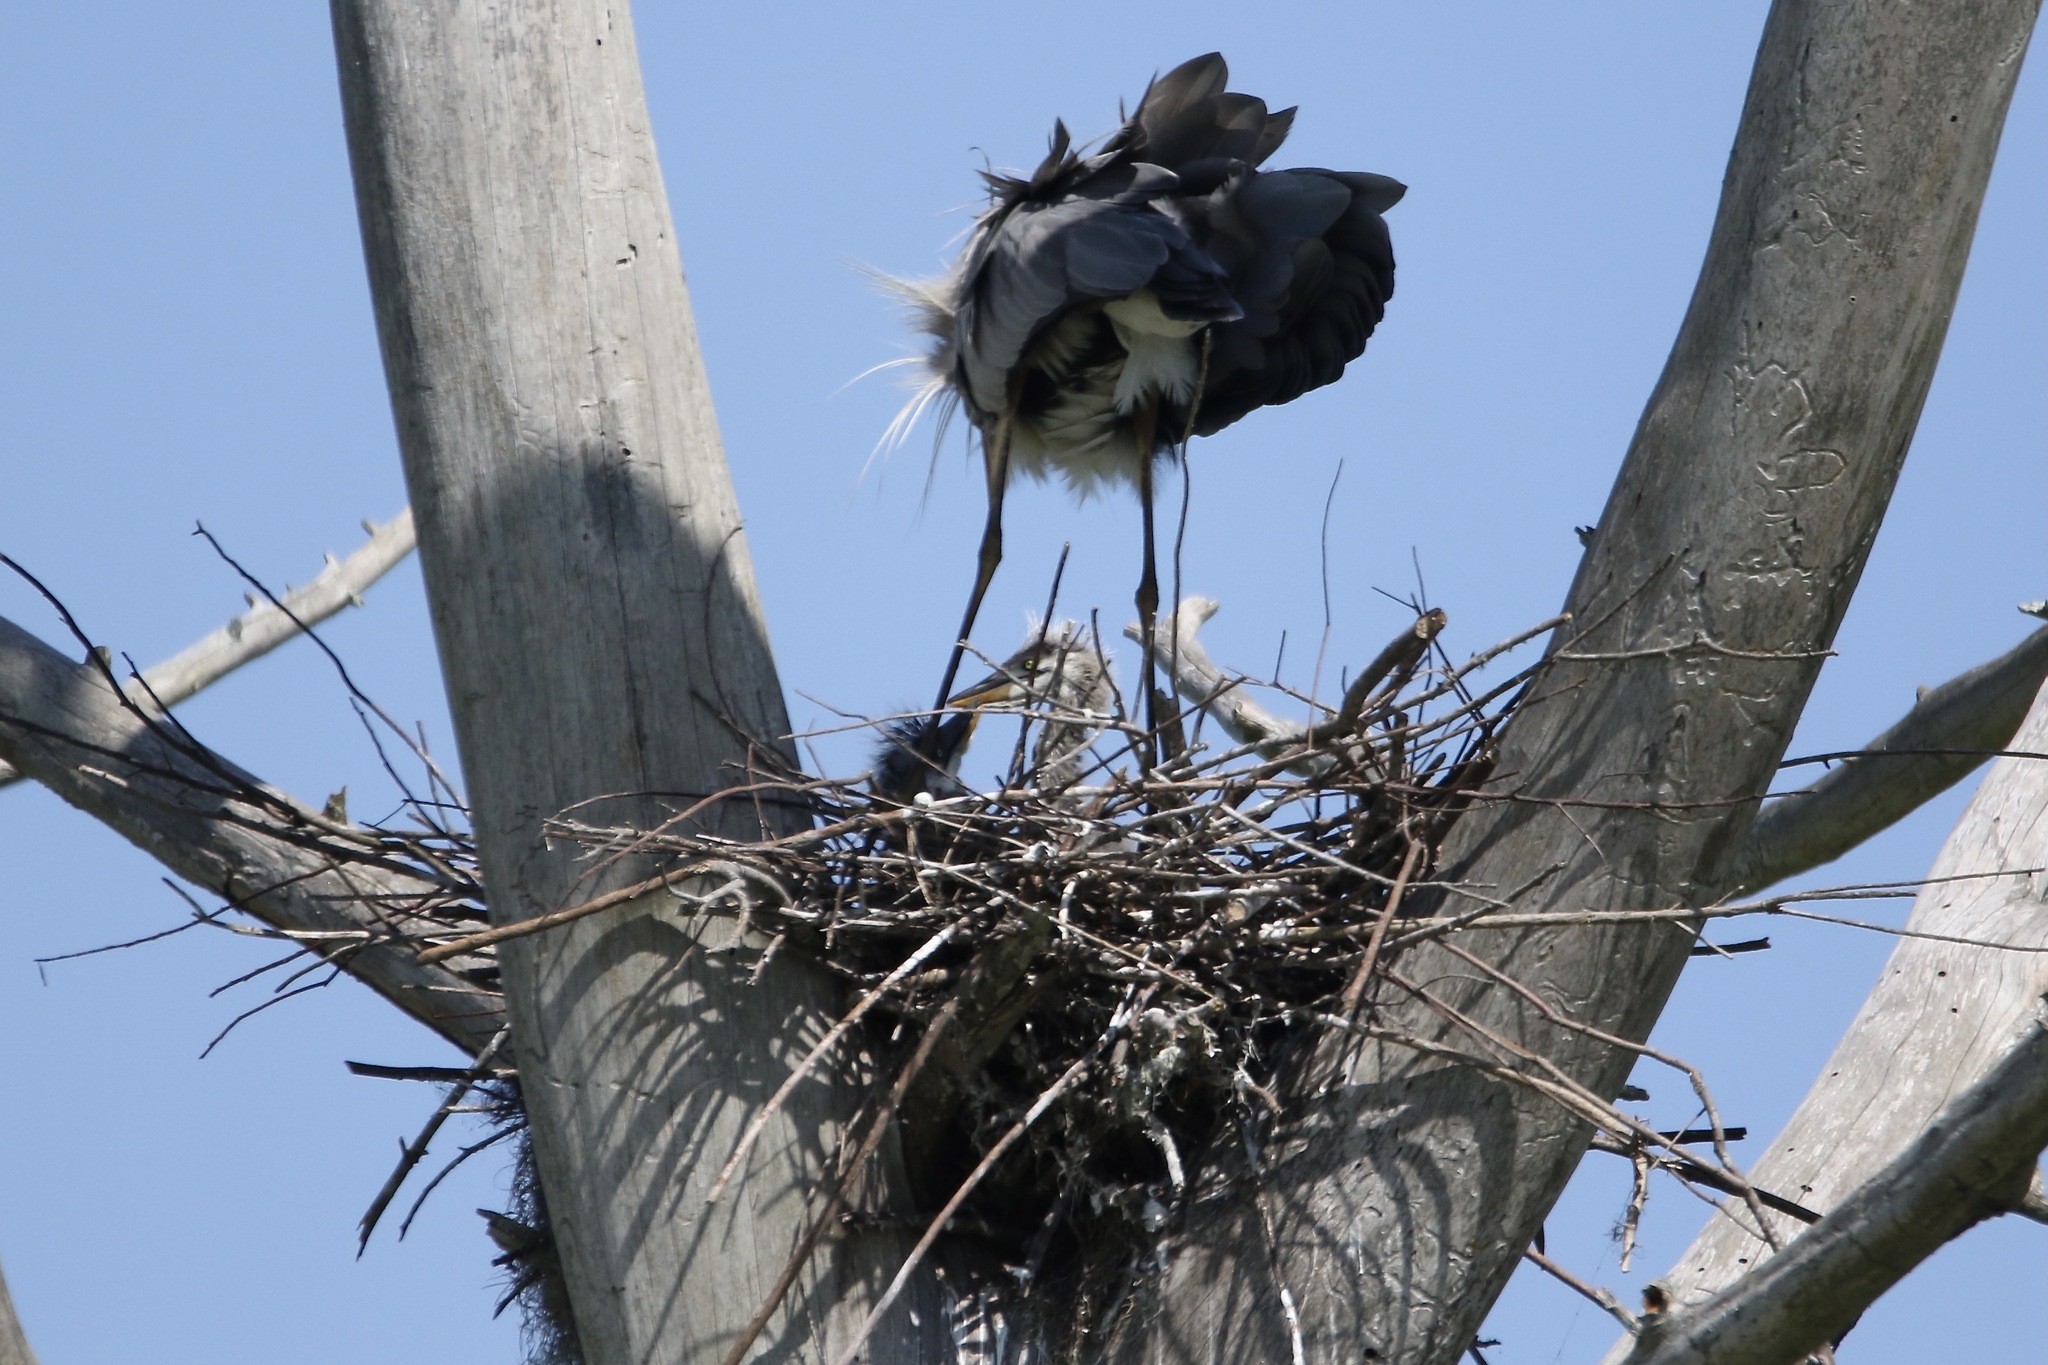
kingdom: Animalia
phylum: Chordata
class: Aves
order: Pelecaniformes
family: Ardeidae
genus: Ardea
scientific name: Ardea herodias
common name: Great blue heron
